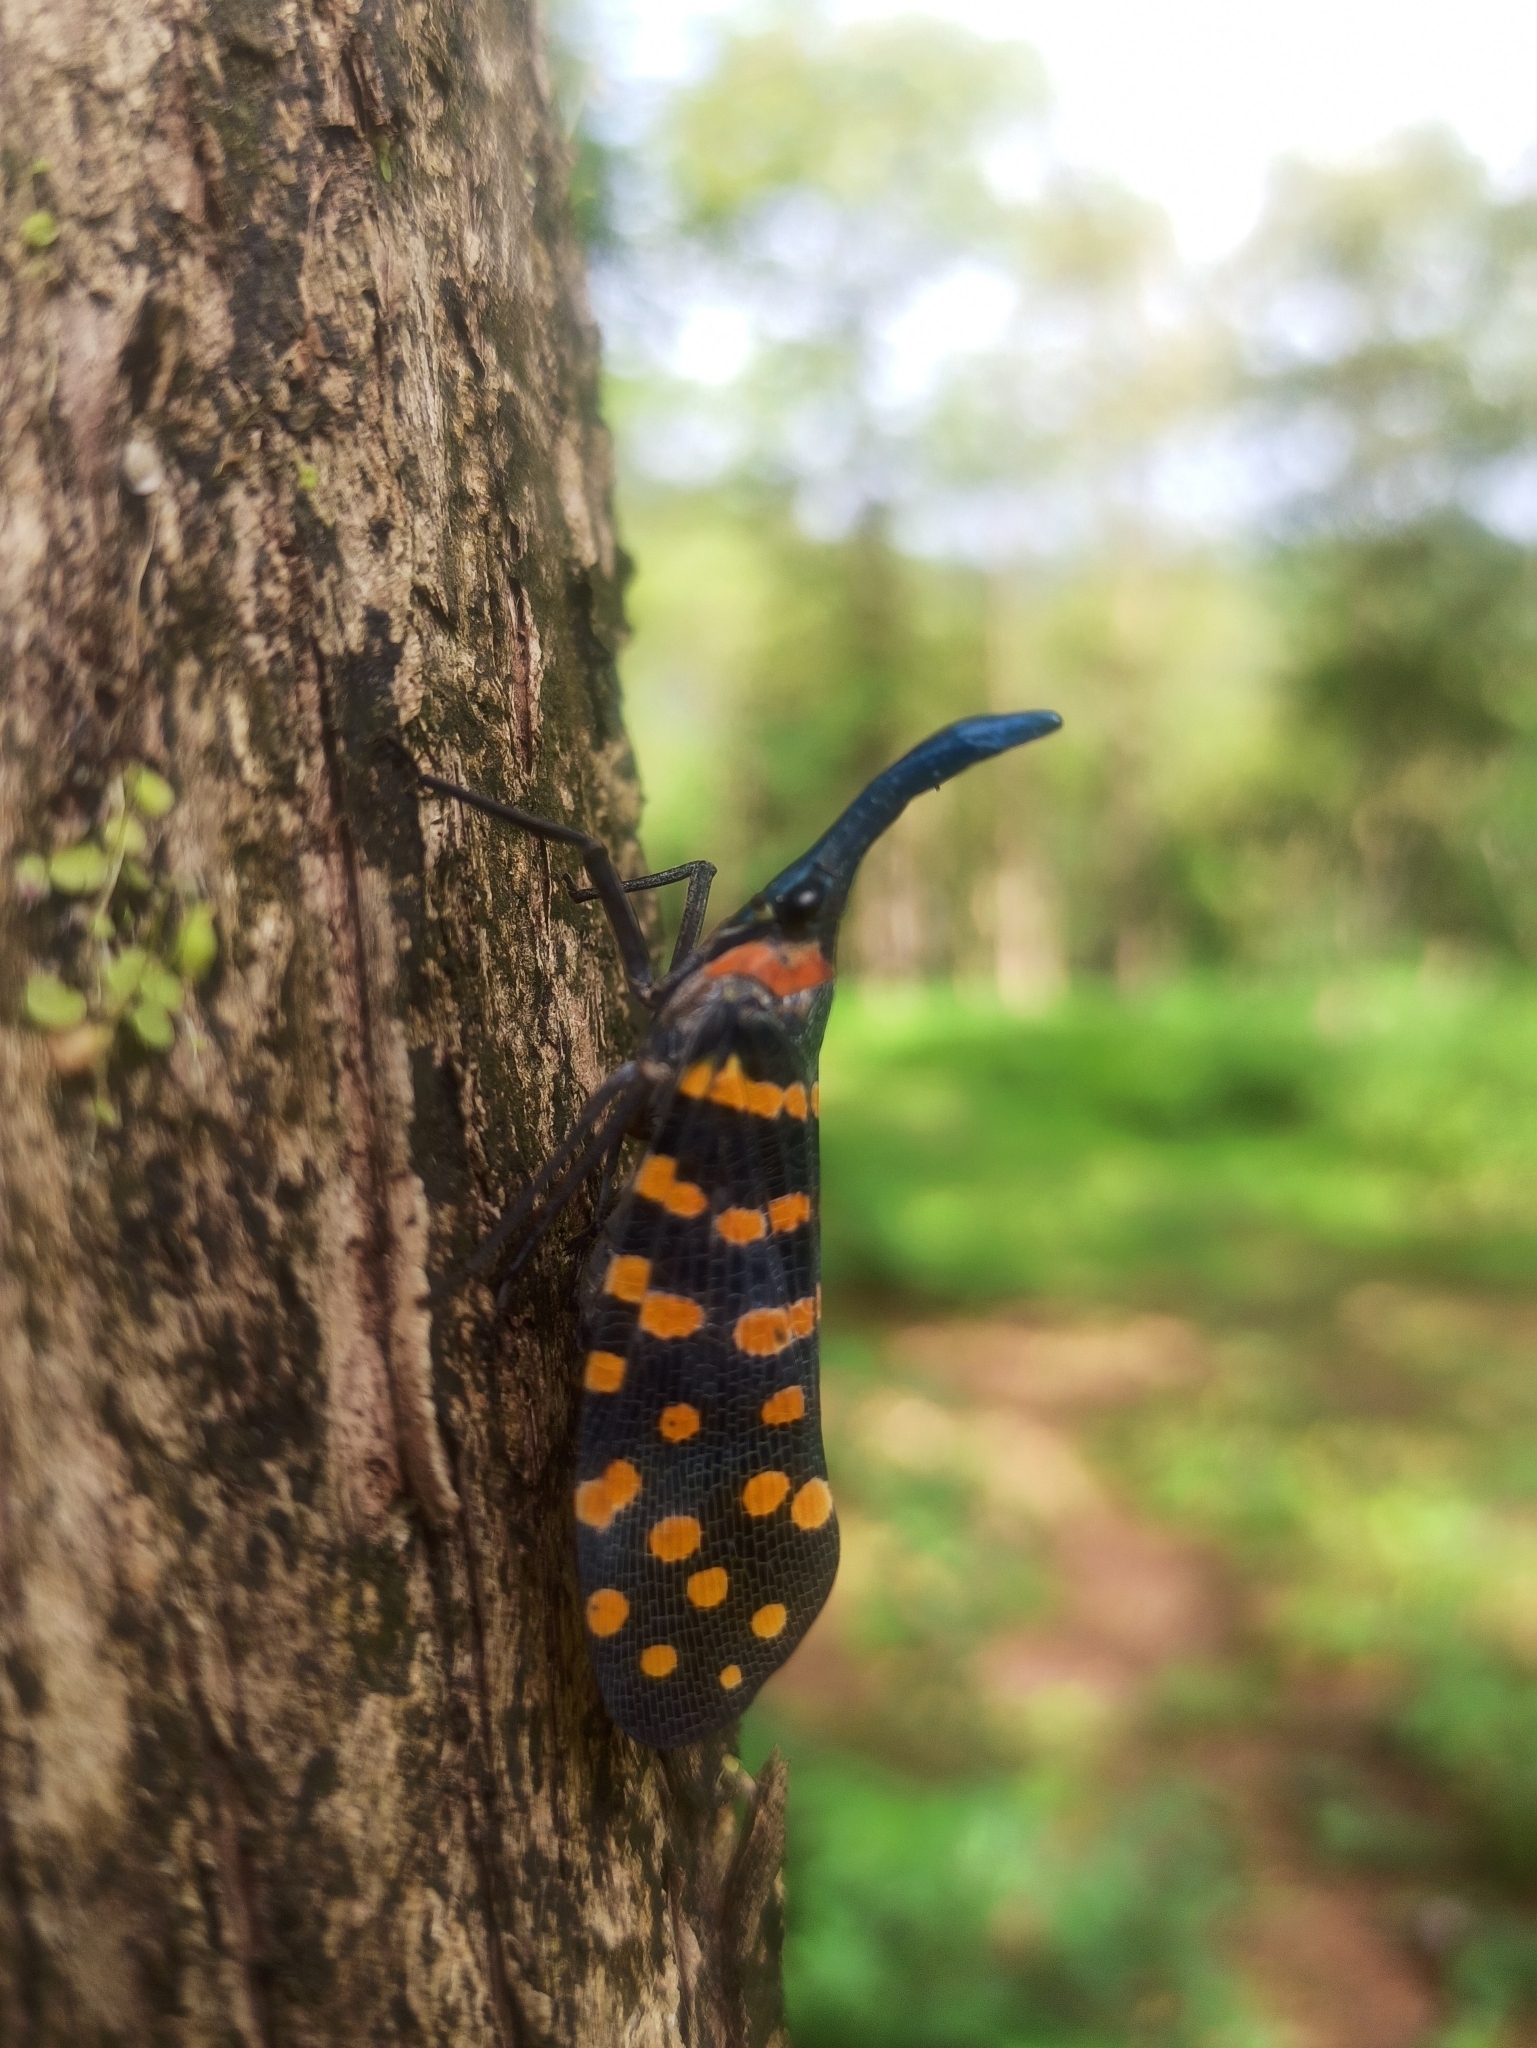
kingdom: Animalia
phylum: Arthropoda
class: Insecta
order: Hemiptera
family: Fulgoridae
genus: Pyrops
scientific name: Pyrops
